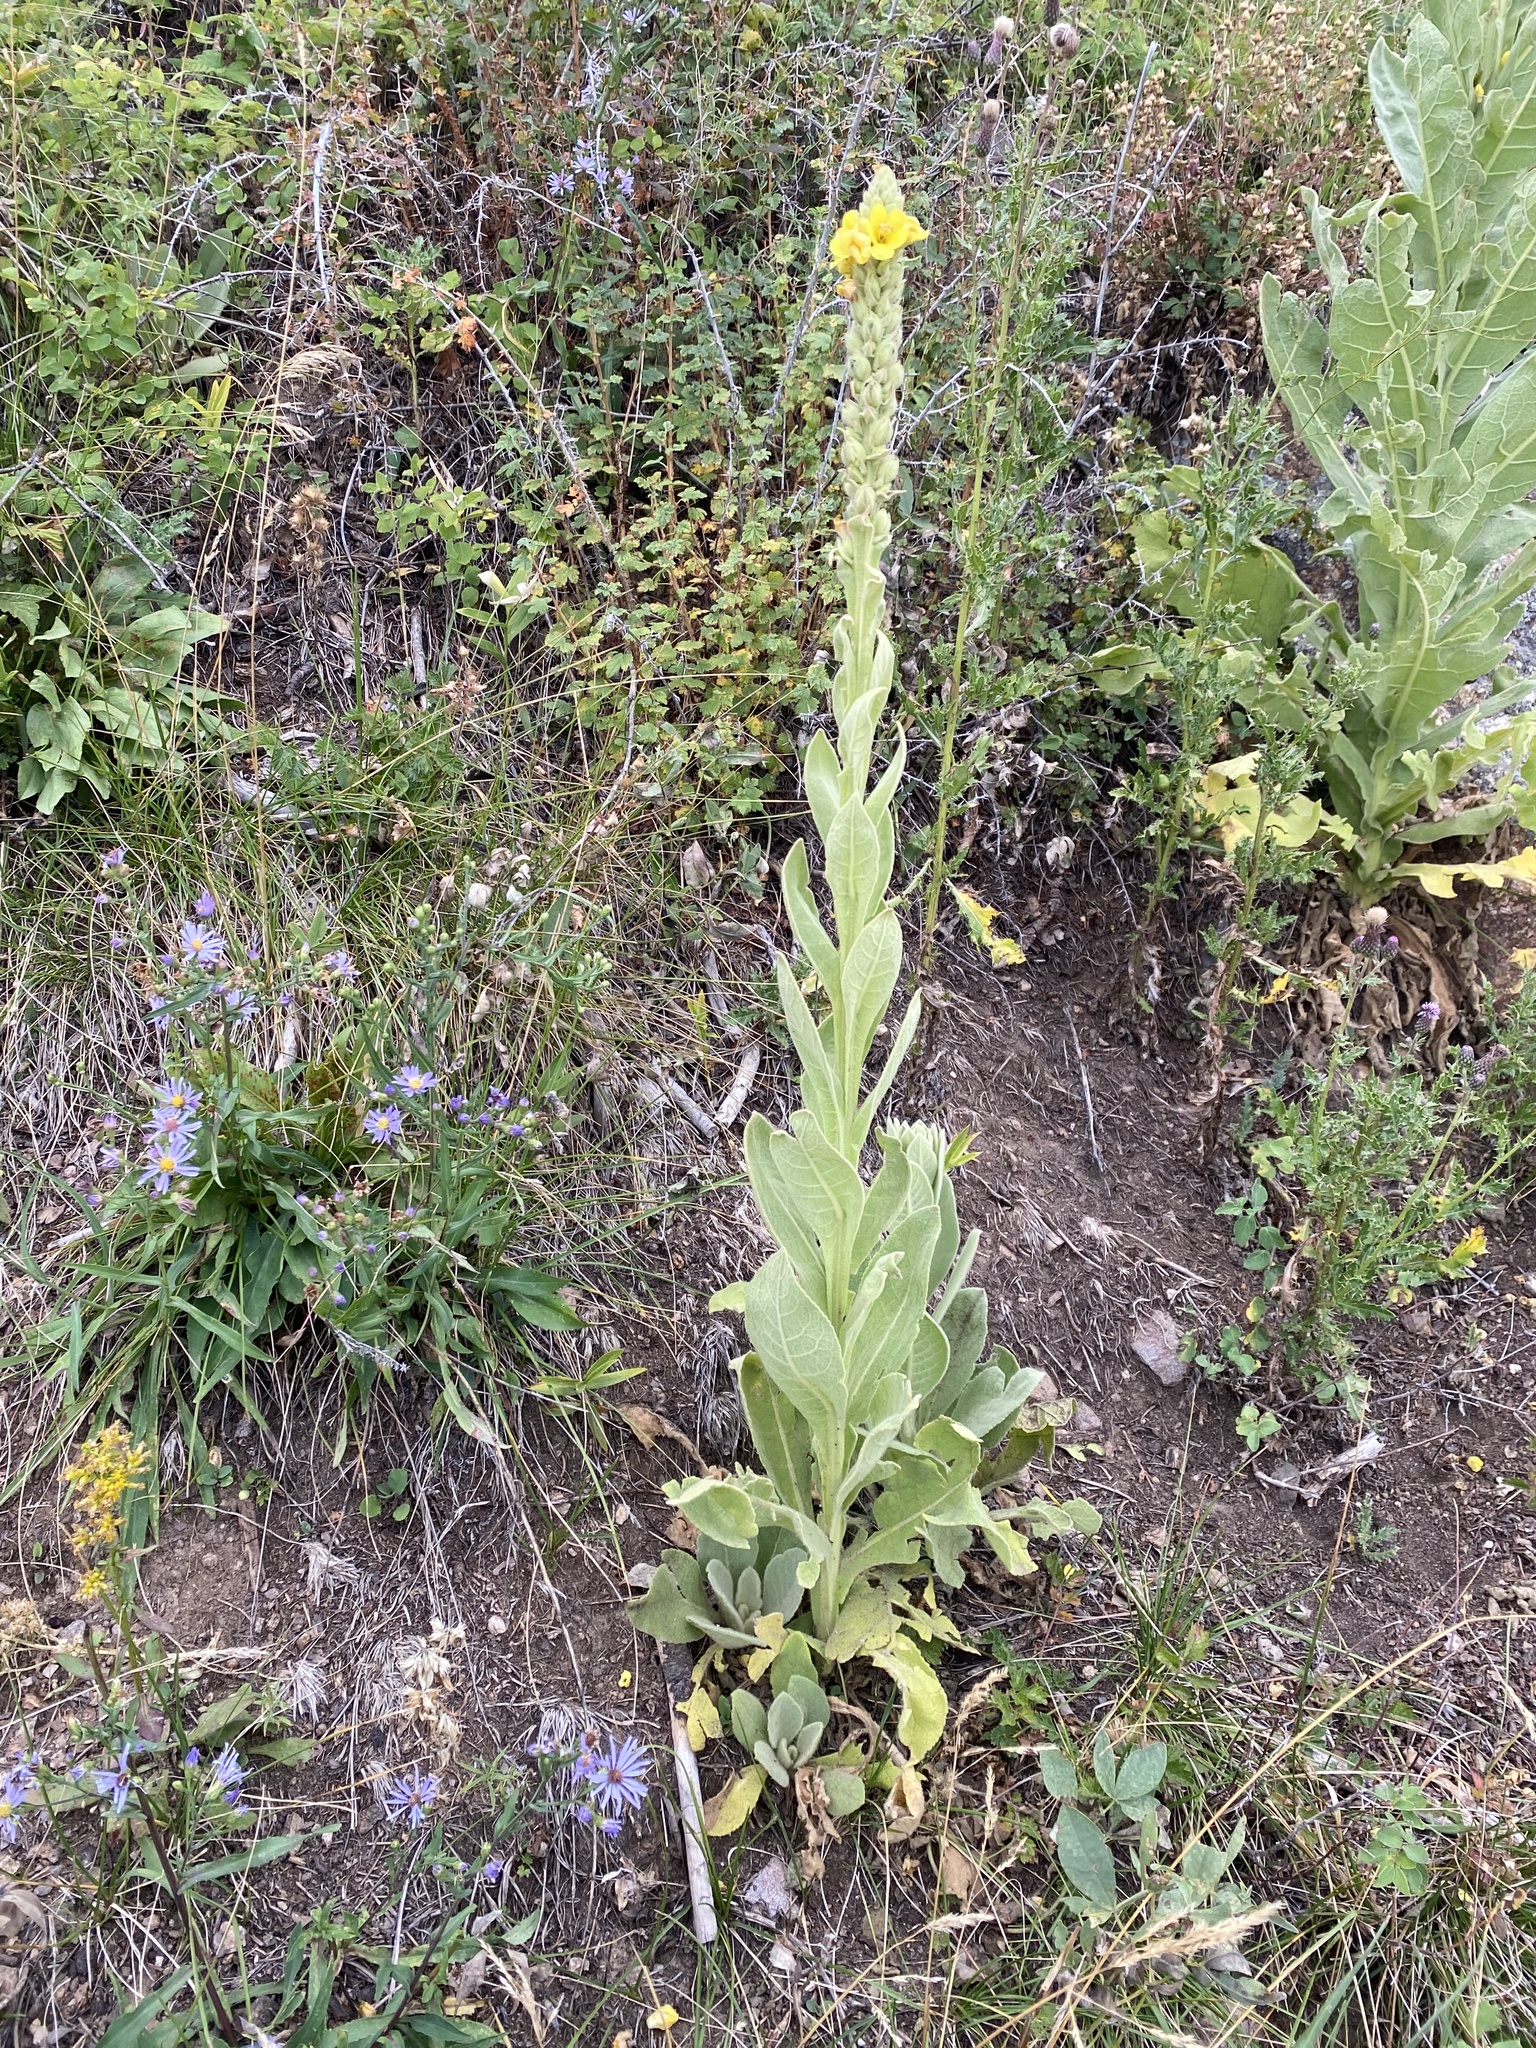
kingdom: Plantae
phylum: Tracheophyta
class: Magnoliopsida
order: Lamiales
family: Scrophulariaceae
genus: Verbascum
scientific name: Verbascum thapsus
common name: Common mullein
